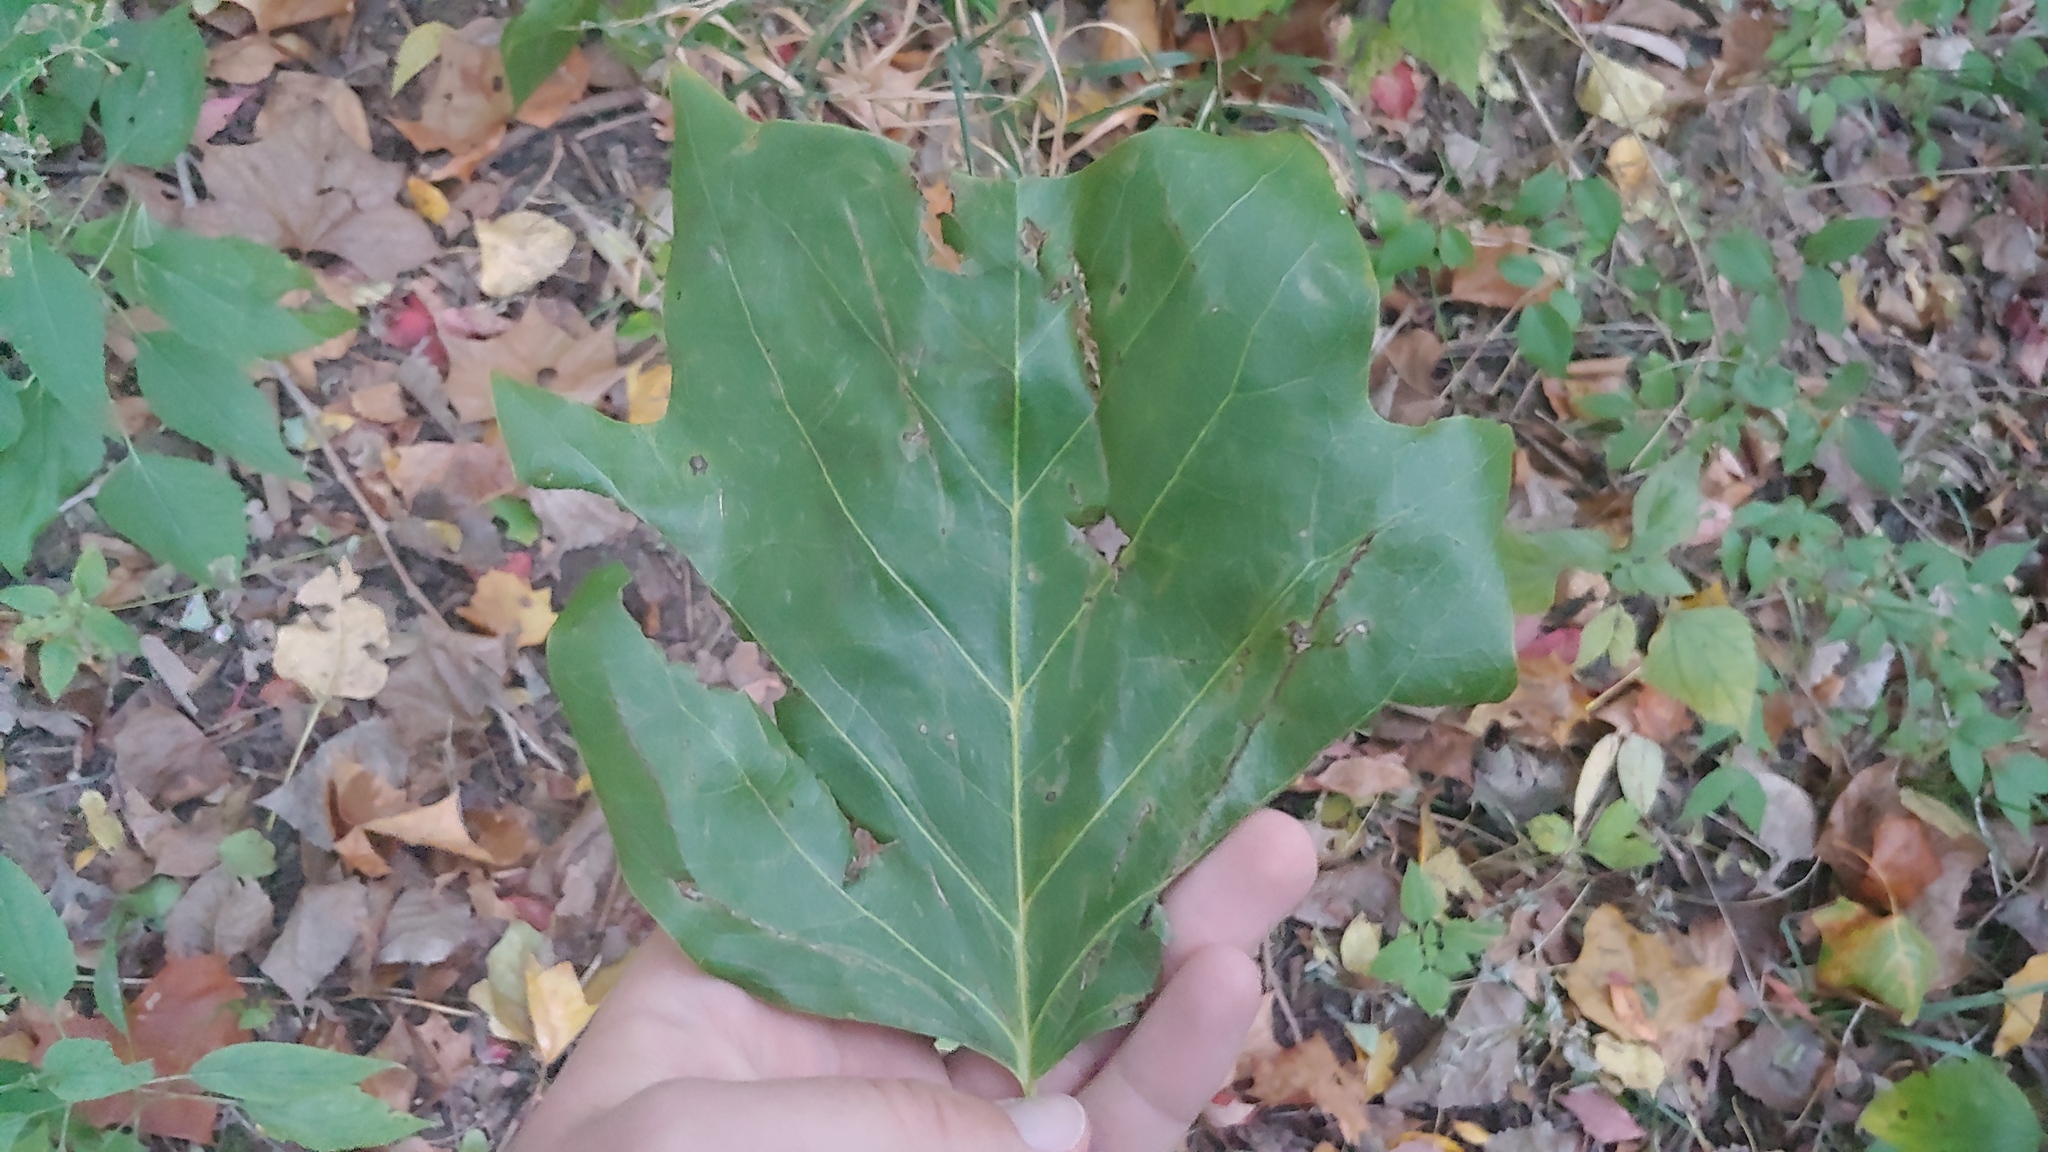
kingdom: Plantae
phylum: Tracheophyta
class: Magnoliopsida
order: Magnoliales
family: Magnoliaceae
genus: Liriodendron
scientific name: Liriodendron tulipifera
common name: Tulip tree
